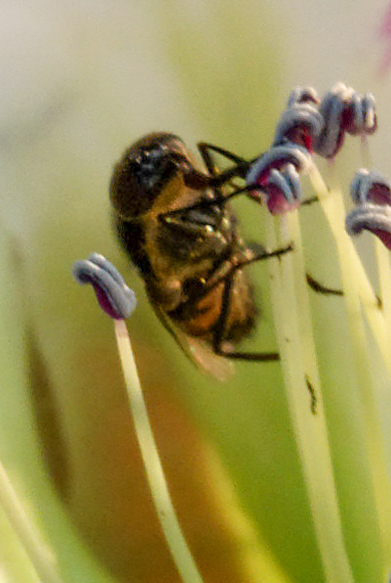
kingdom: Animalia
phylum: Arthropoda
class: Insecta
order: Diptera
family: Calliphoridae
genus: Stomorhina
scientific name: Stomorhina lunata
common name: Locust blowfly
